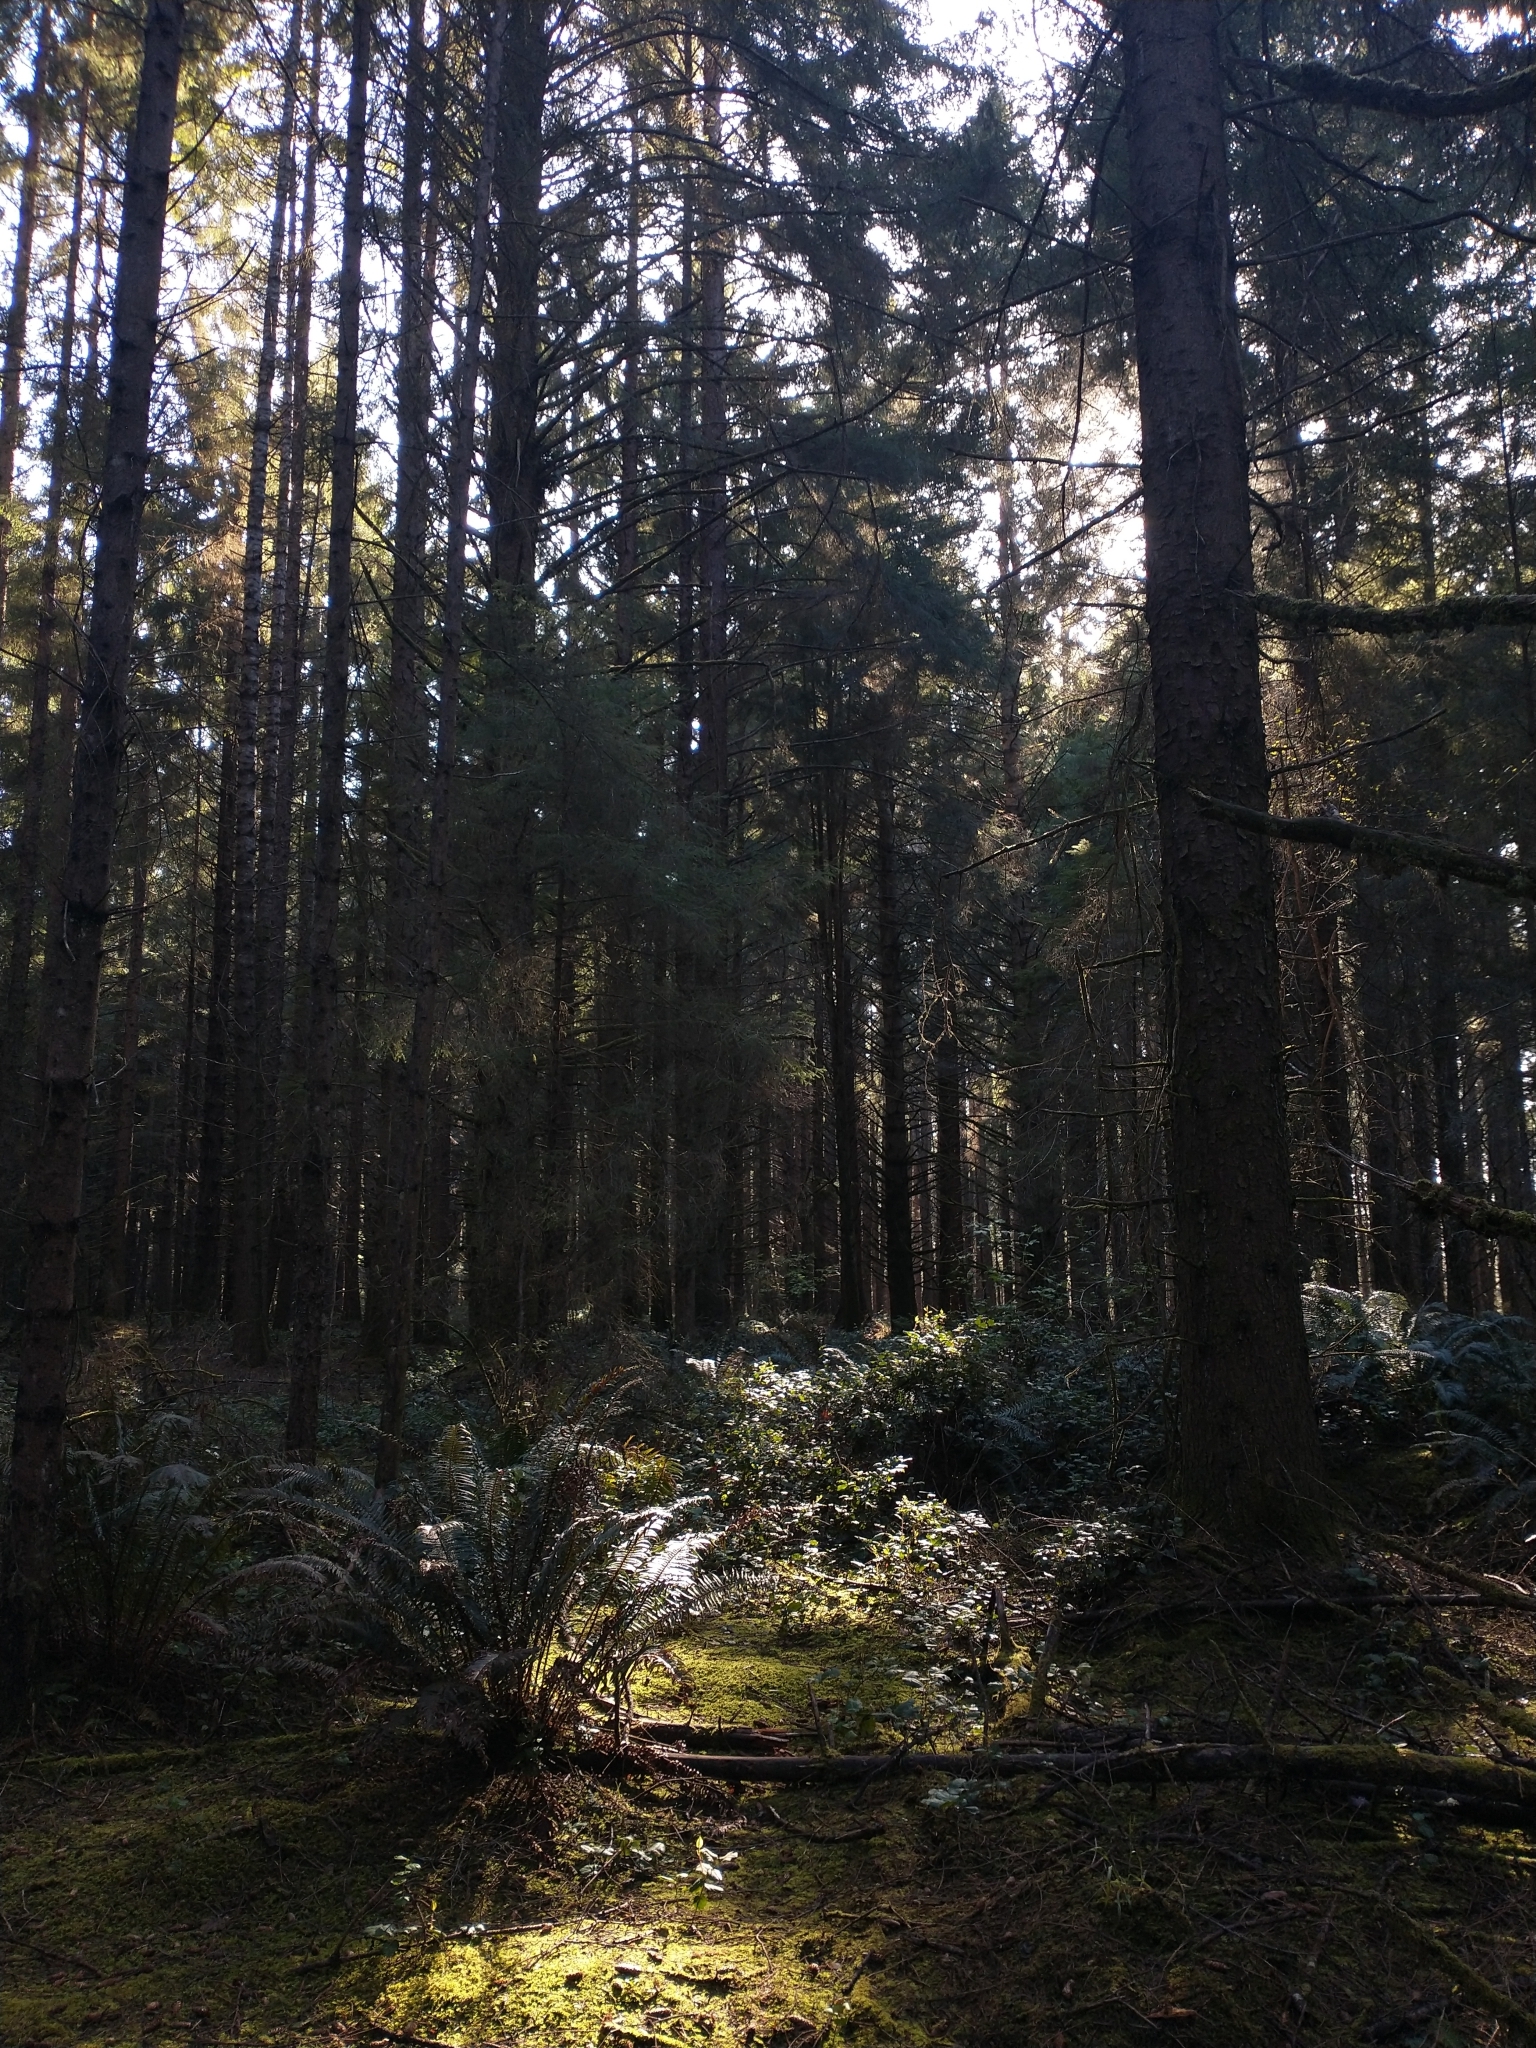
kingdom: Plantae
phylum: Tracheophyta
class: Polypodiopsida
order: Polypodiales
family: Dryopteridaceae
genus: Polystichum
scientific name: Polystichum munitum
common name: Western sword-fern
